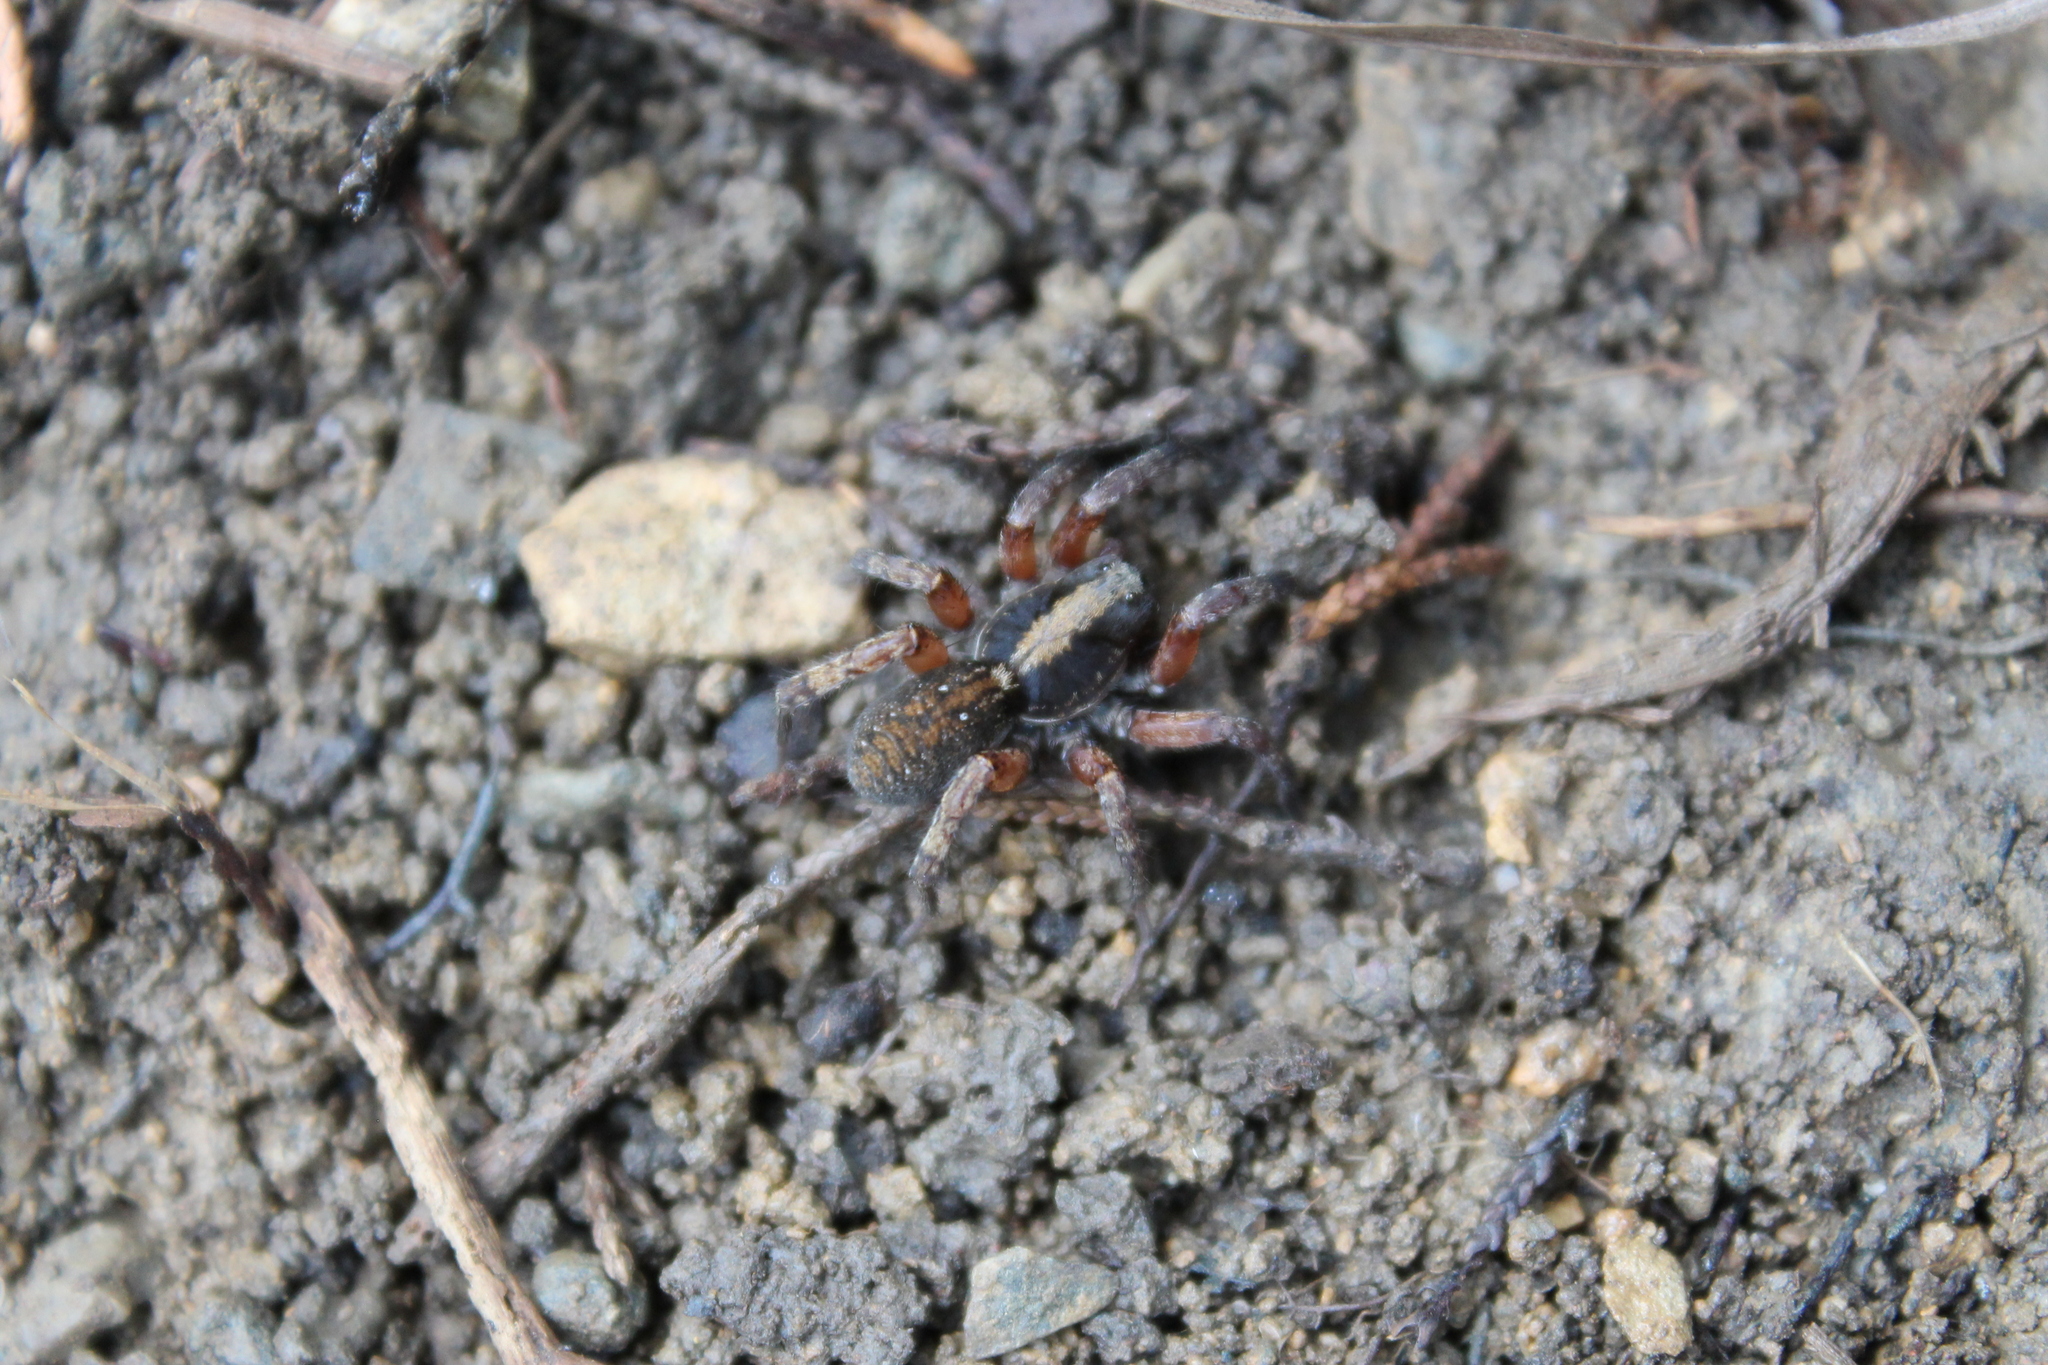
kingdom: Animalia
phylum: Arthropoda
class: Arachnida
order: Araneae
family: Lycosidae
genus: Trochosa
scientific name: Trochosa sepulchralis
